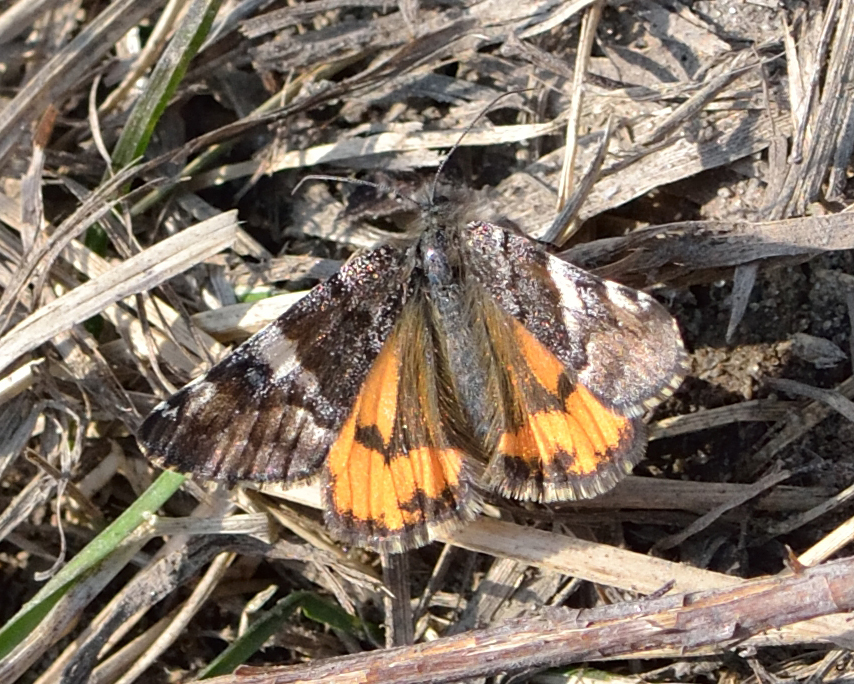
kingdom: Animalia
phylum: Arthropoda
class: Insecta
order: Lepidoptera
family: Geometridae
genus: Archiearis
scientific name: Archiearis parthenias
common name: Orange underwing
